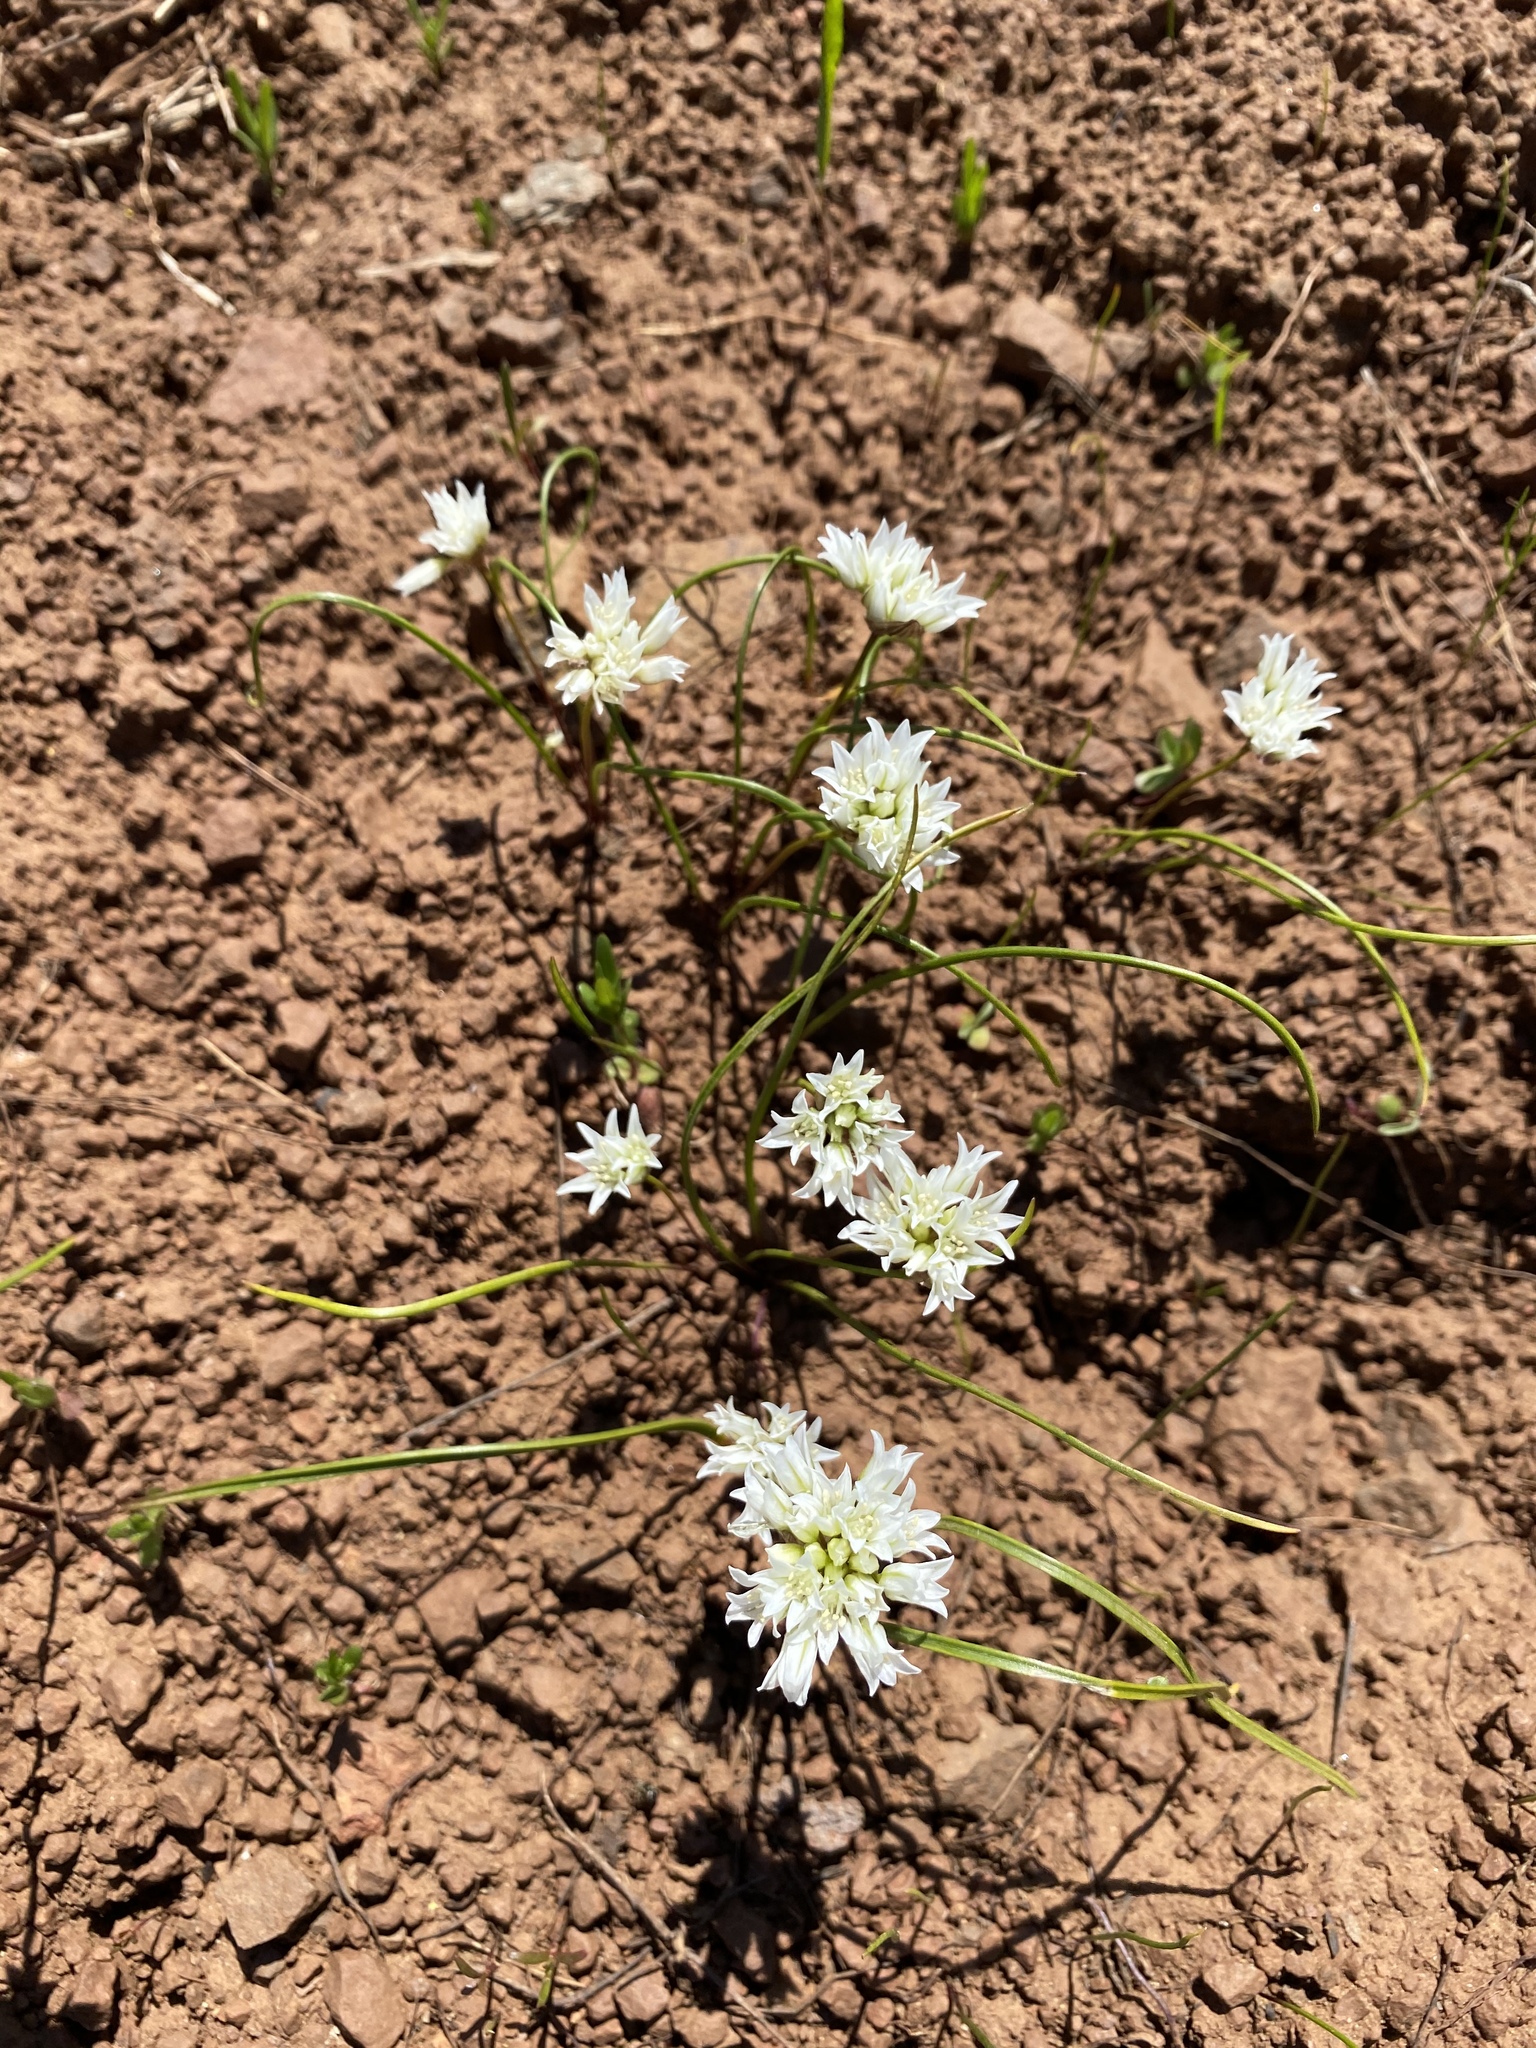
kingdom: Plantae
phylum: Tracheophyta
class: Liliopsida
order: Asparagales
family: Amaryllidaceae
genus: Allium
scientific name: Allium fibrillum
